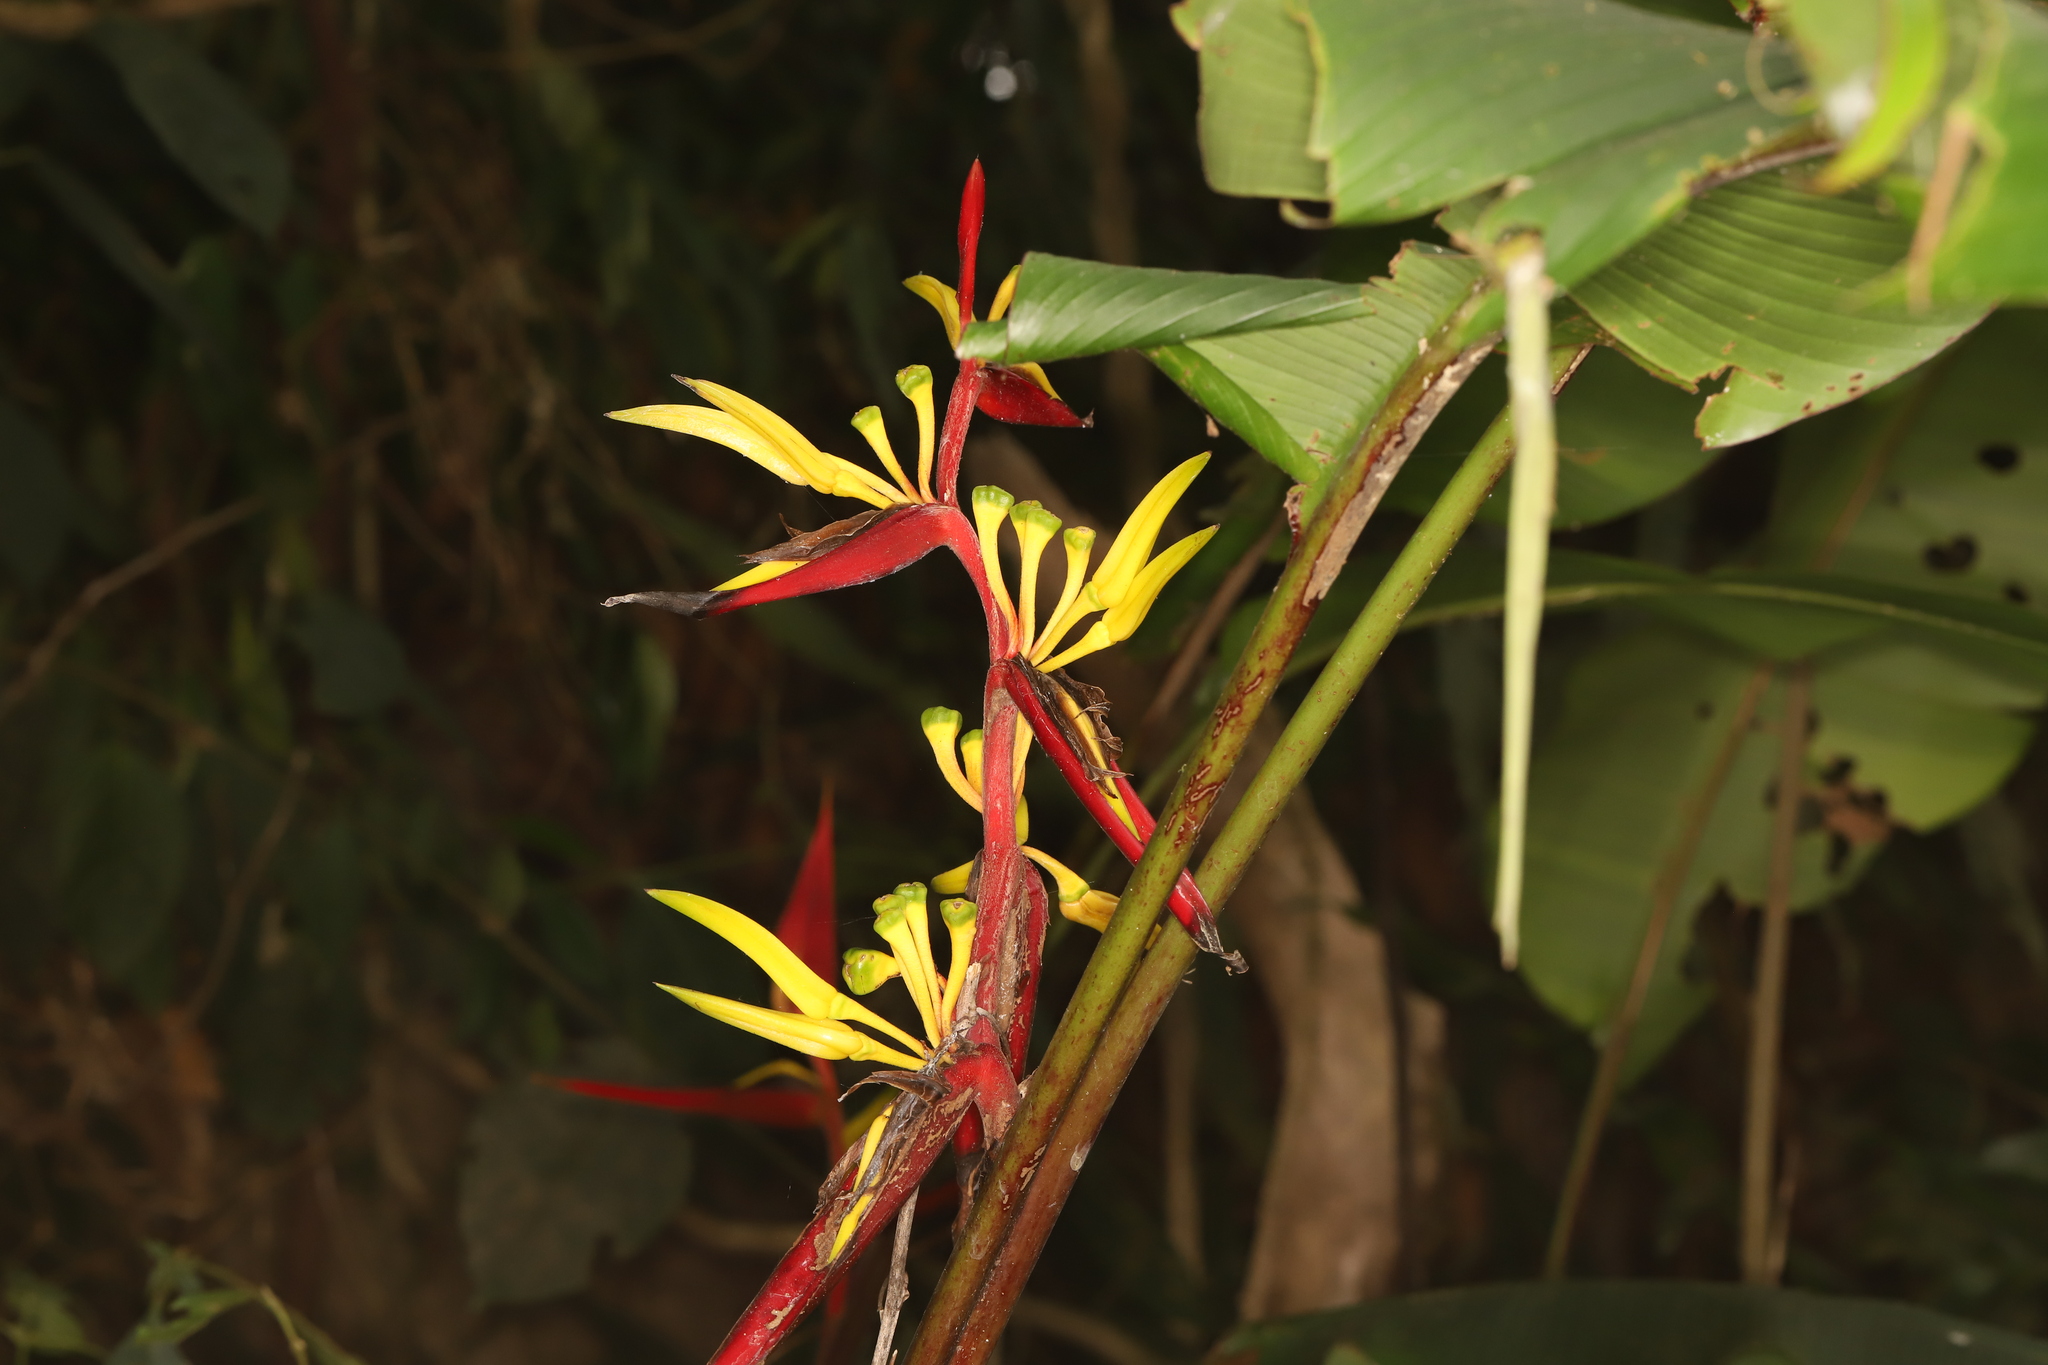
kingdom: Plantae
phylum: Tracheophyta
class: Liliopsida
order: Zingiberales
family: Heliconiaceae
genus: Heliconia
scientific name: Heliconia mincana
